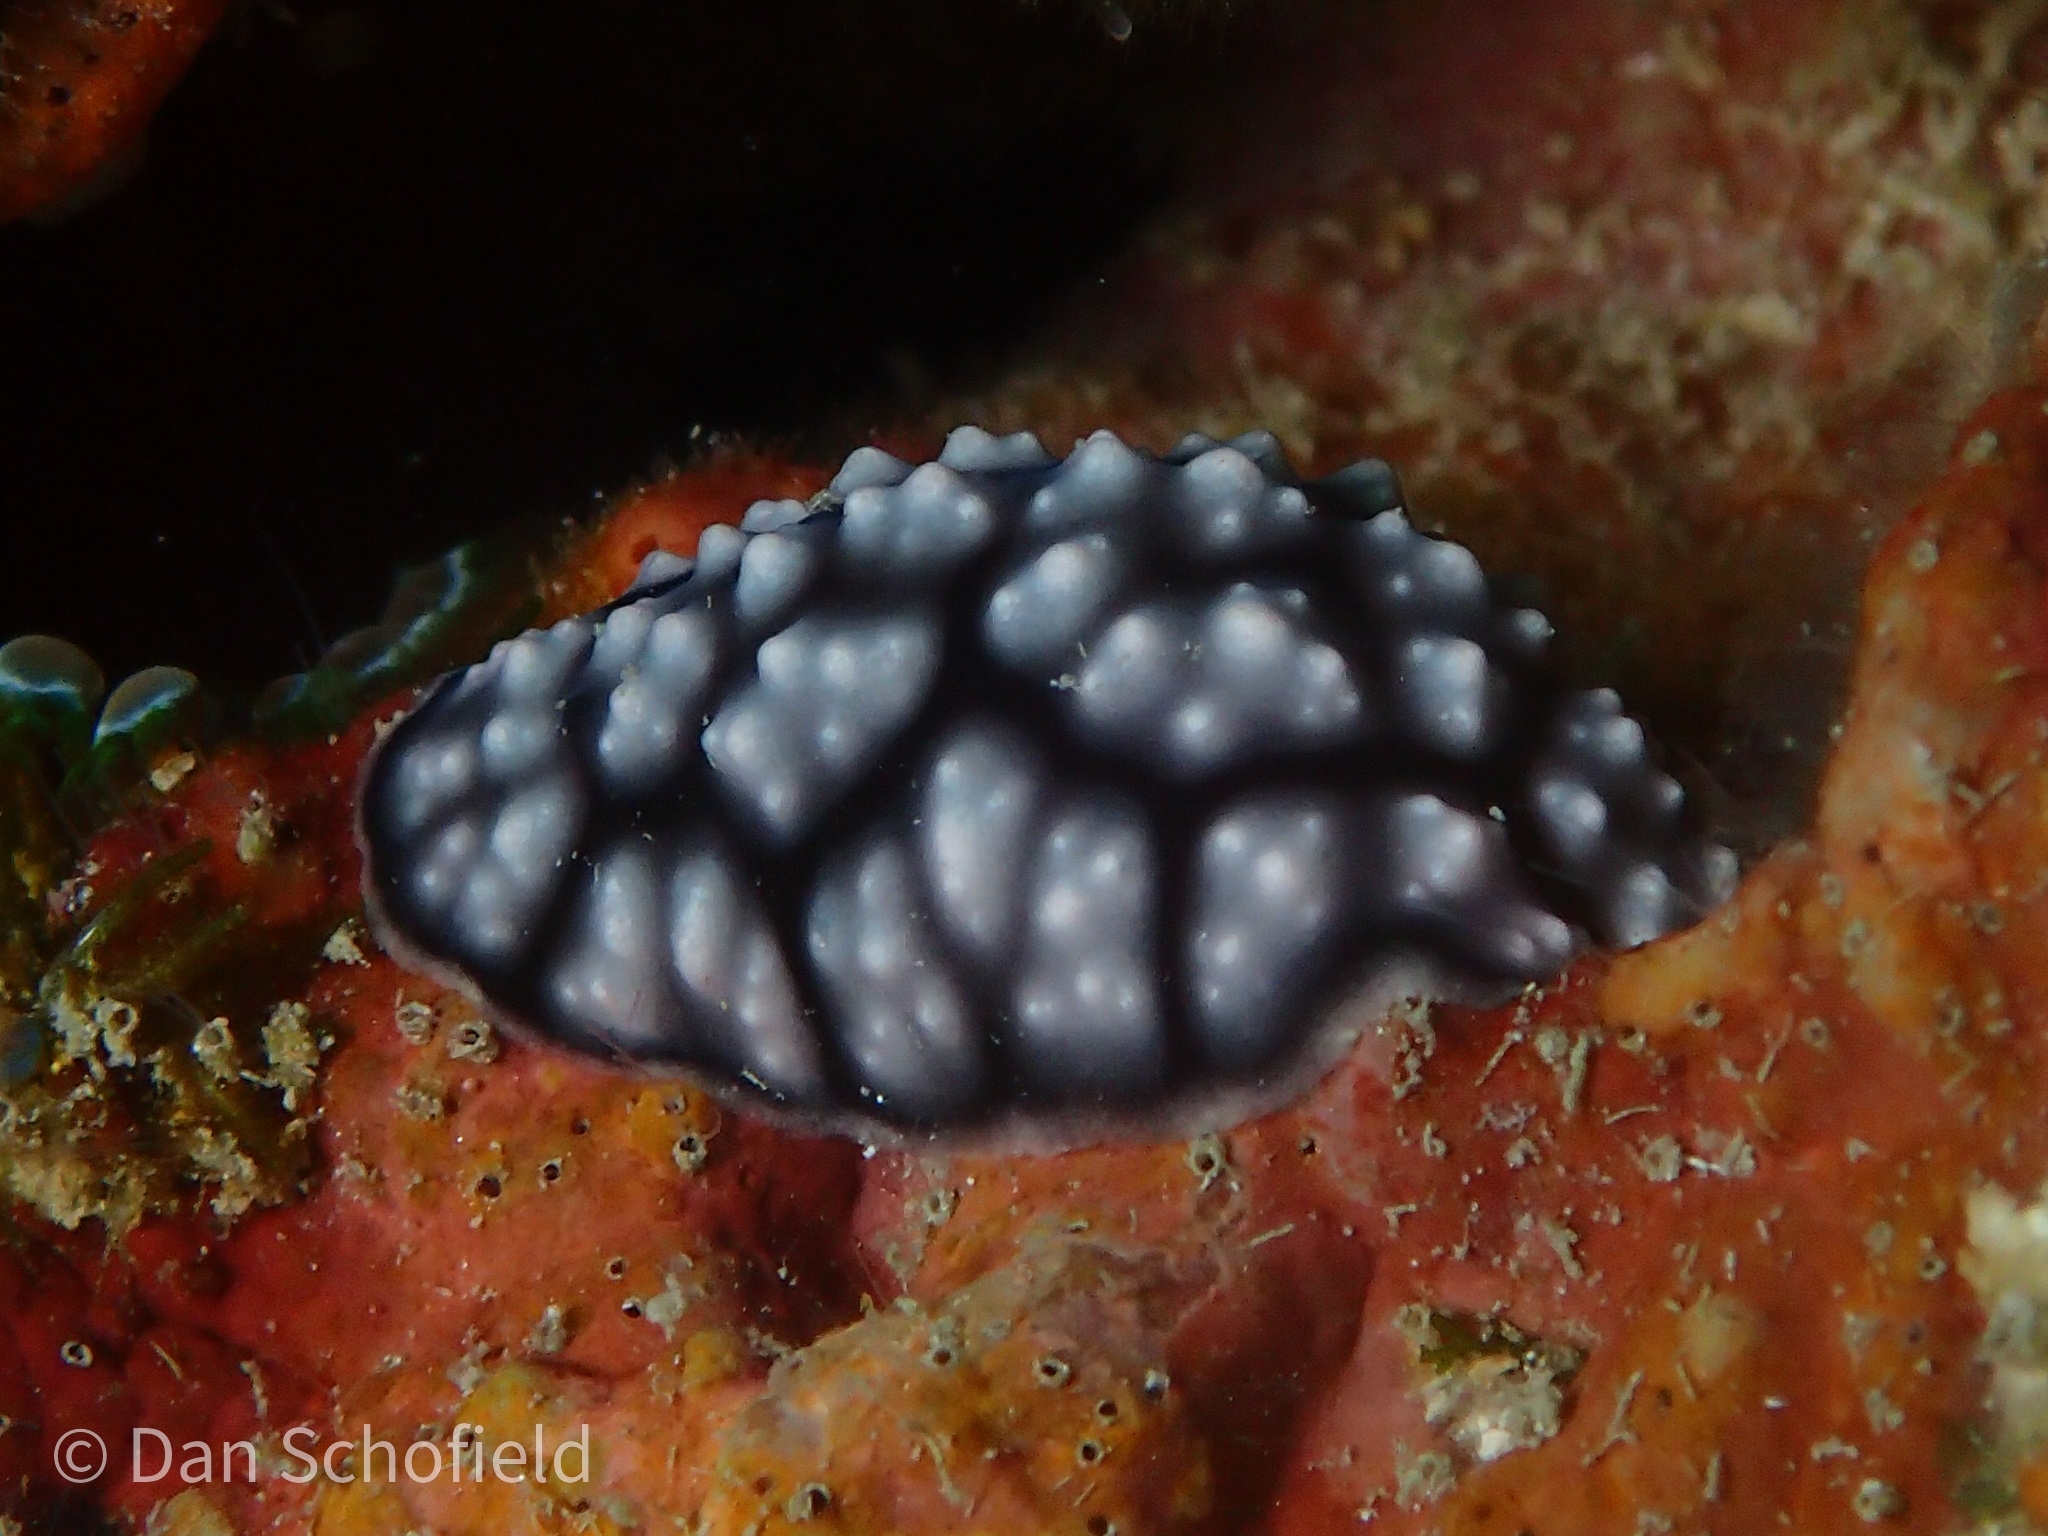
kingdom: Animalia
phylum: Mollusca
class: Gastropoda
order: Nudibranchia
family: Phyllidiidae
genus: Phyllidiella
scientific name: Phyllidiella pustulosa
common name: Pustular phyllidia
